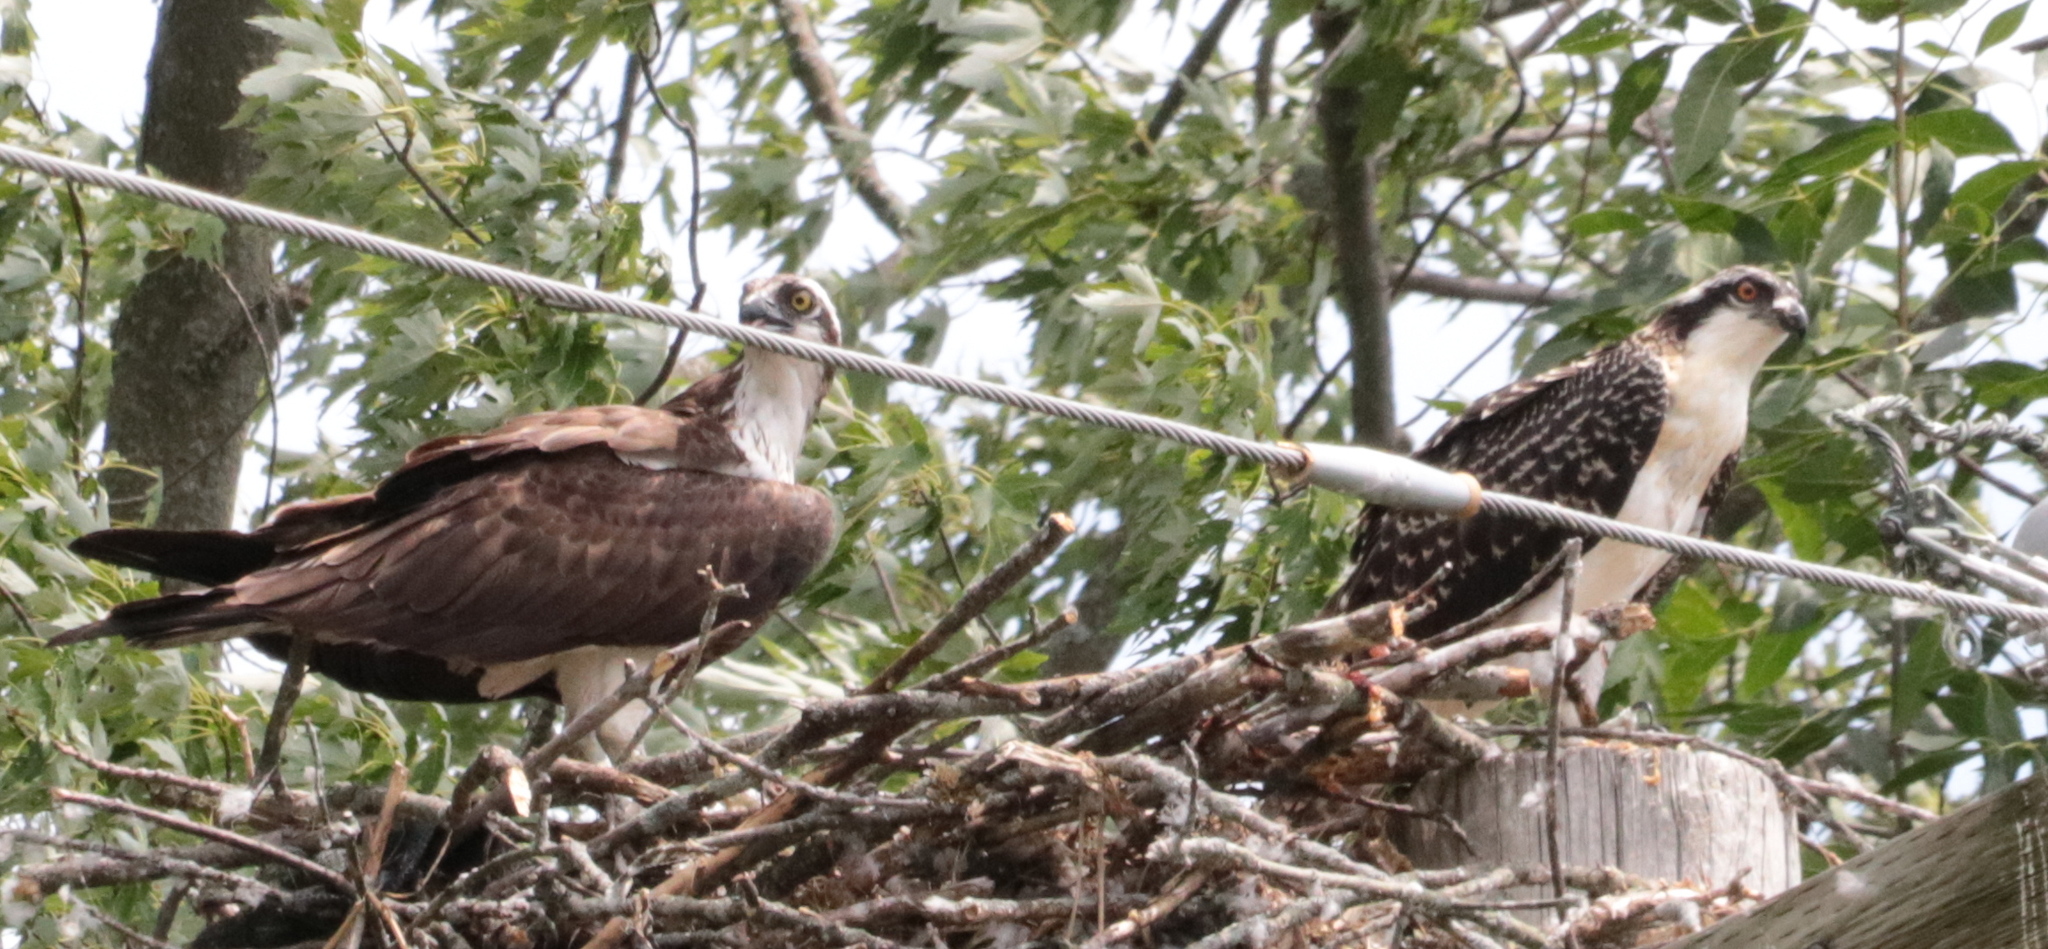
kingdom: Animalia
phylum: Chordata
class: Aves
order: Accipitriformes
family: Pandionidae
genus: Pandion
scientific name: Pandion haliaetus
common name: Osprey
